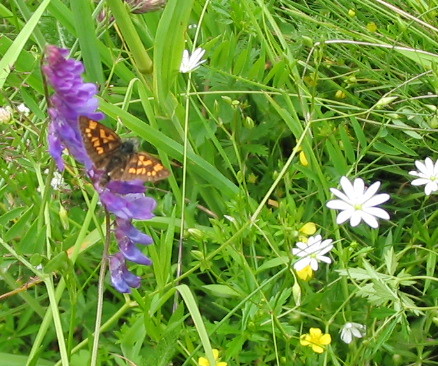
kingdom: Animalia
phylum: Arthropoda
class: Insecta
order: Lepidoptera
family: Hesperiidae
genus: Carterocephalus
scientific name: Carterocephalus palaemon
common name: Chequered skipper
